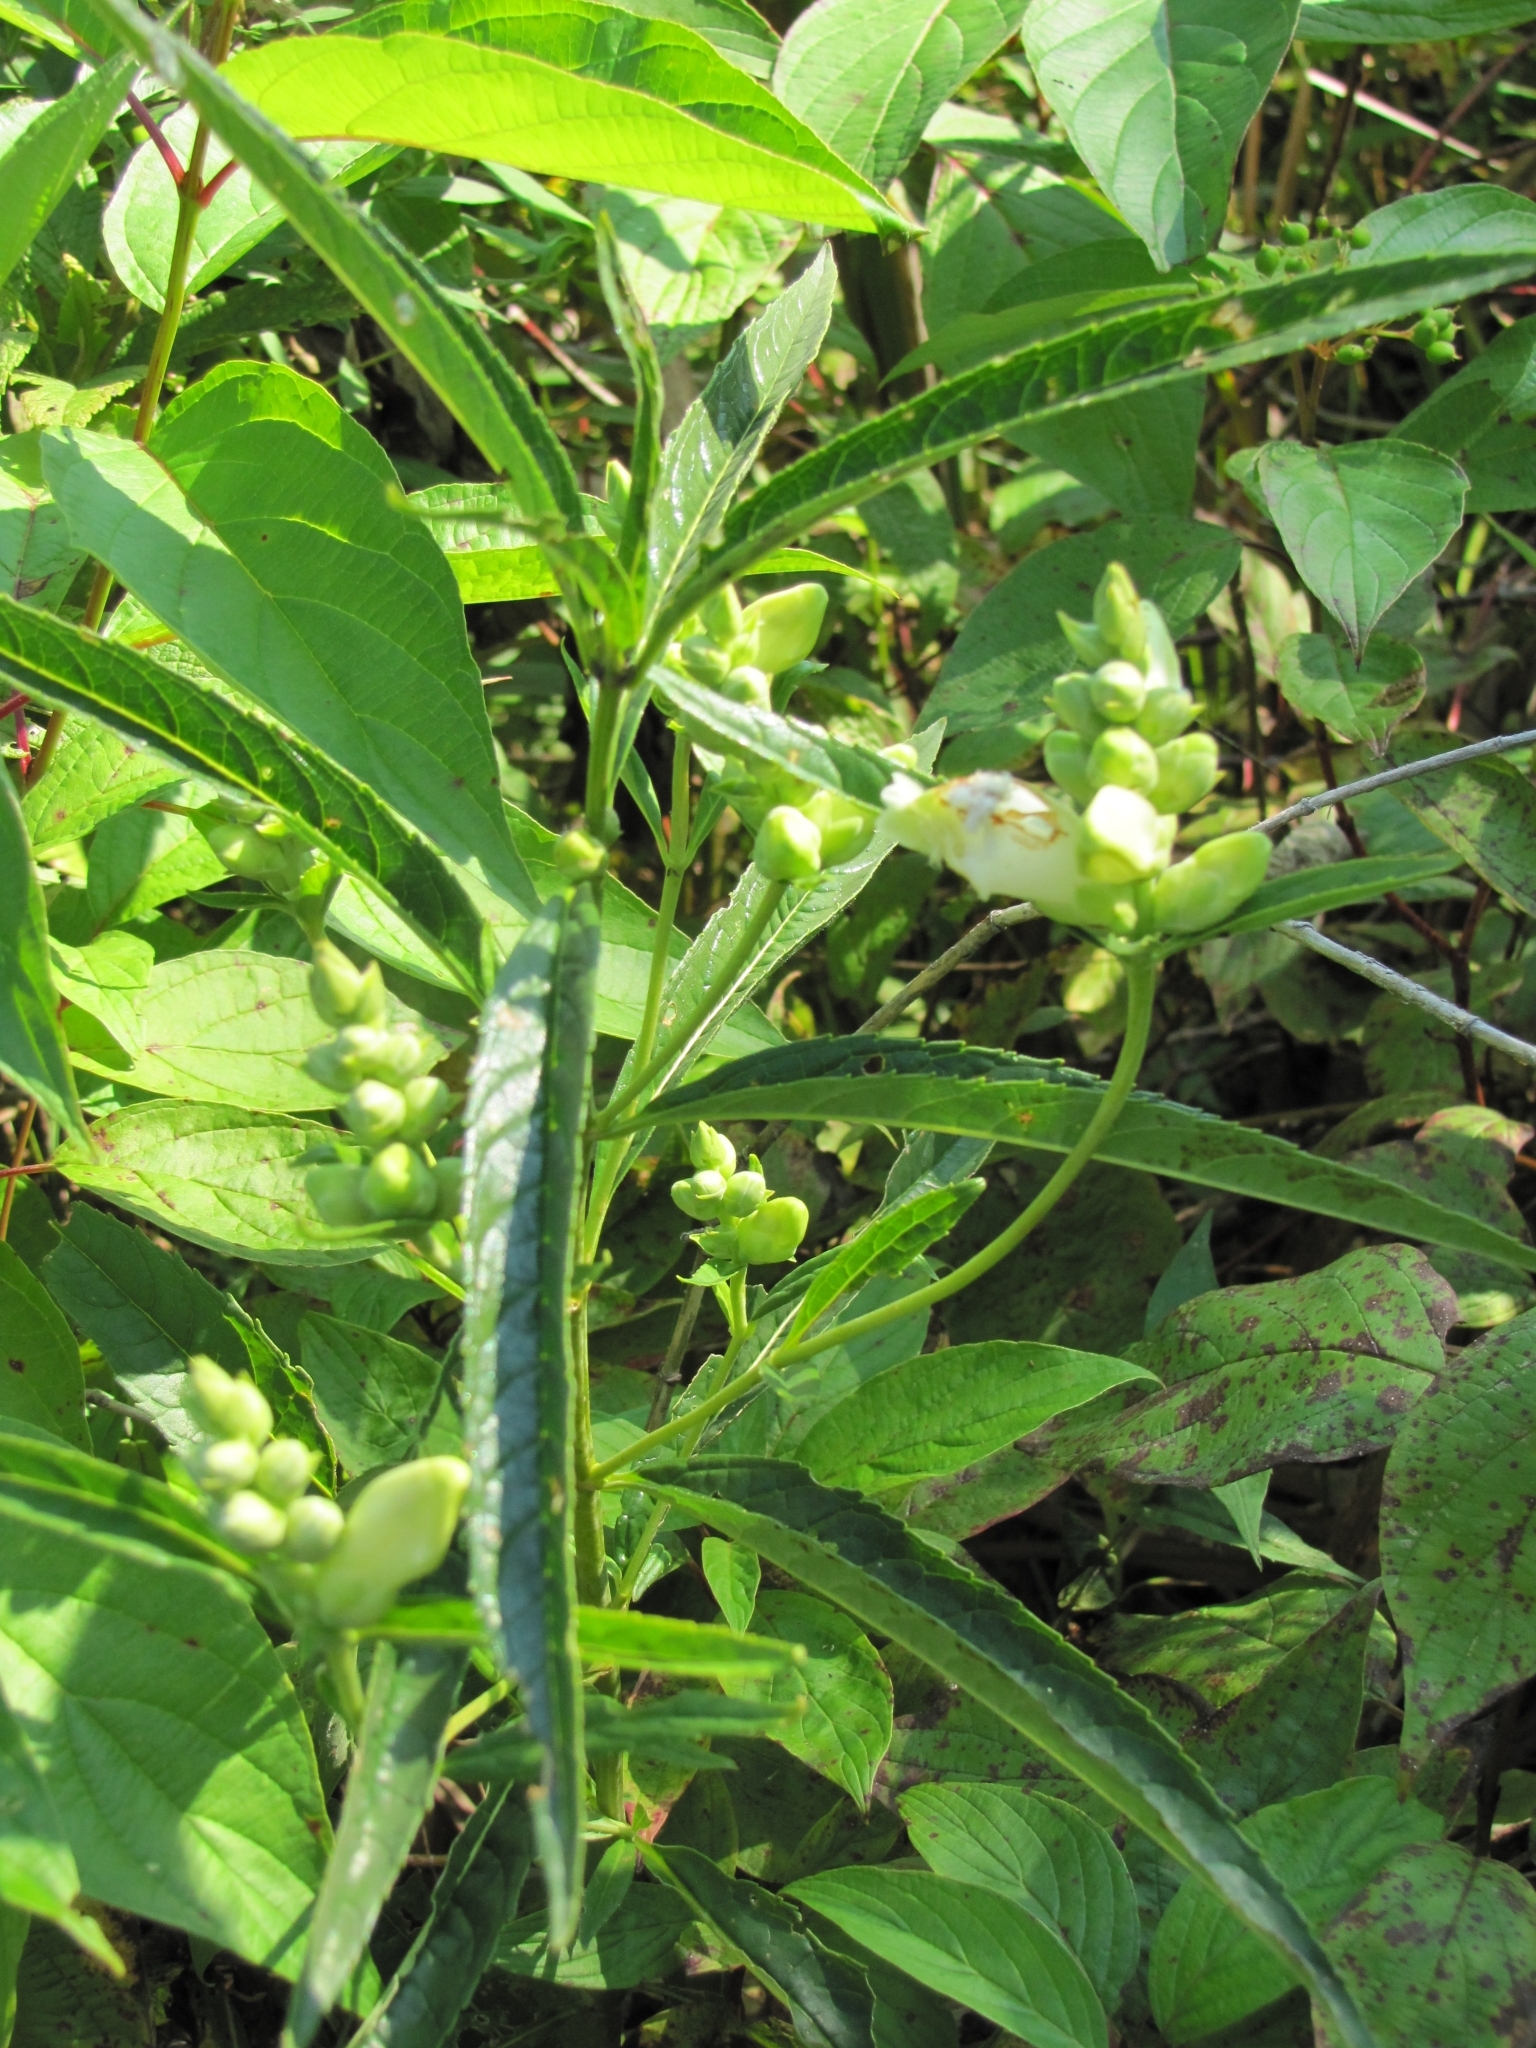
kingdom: Plantae
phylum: Tracheophyta
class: Magnoliopsida
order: Lamiales
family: Plantaginaceae
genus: Chelone
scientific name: Chelone glabra
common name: Snakehead
